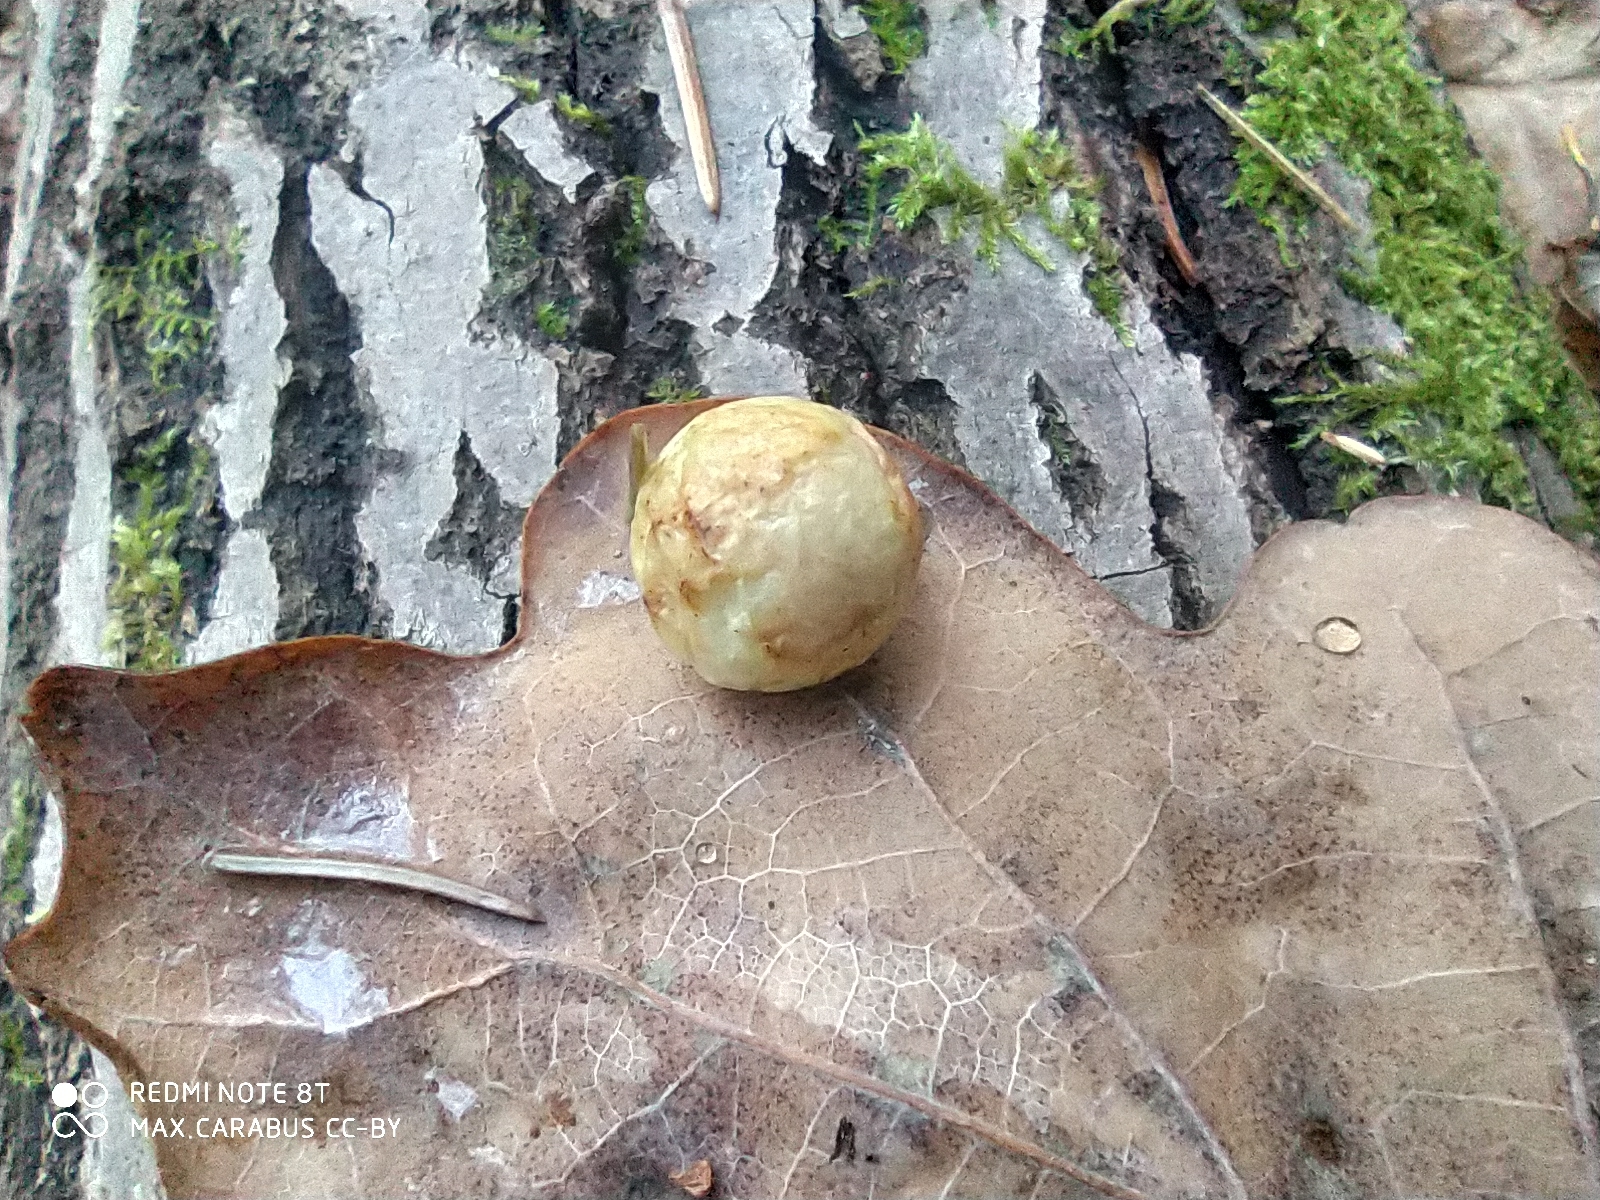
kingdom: Animalia
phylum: Arthropoda
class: Insecta
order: Hymenoptera
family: Cynipidae
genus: Cynips
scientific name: Cynips quercusfolii
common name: Cherry gall
